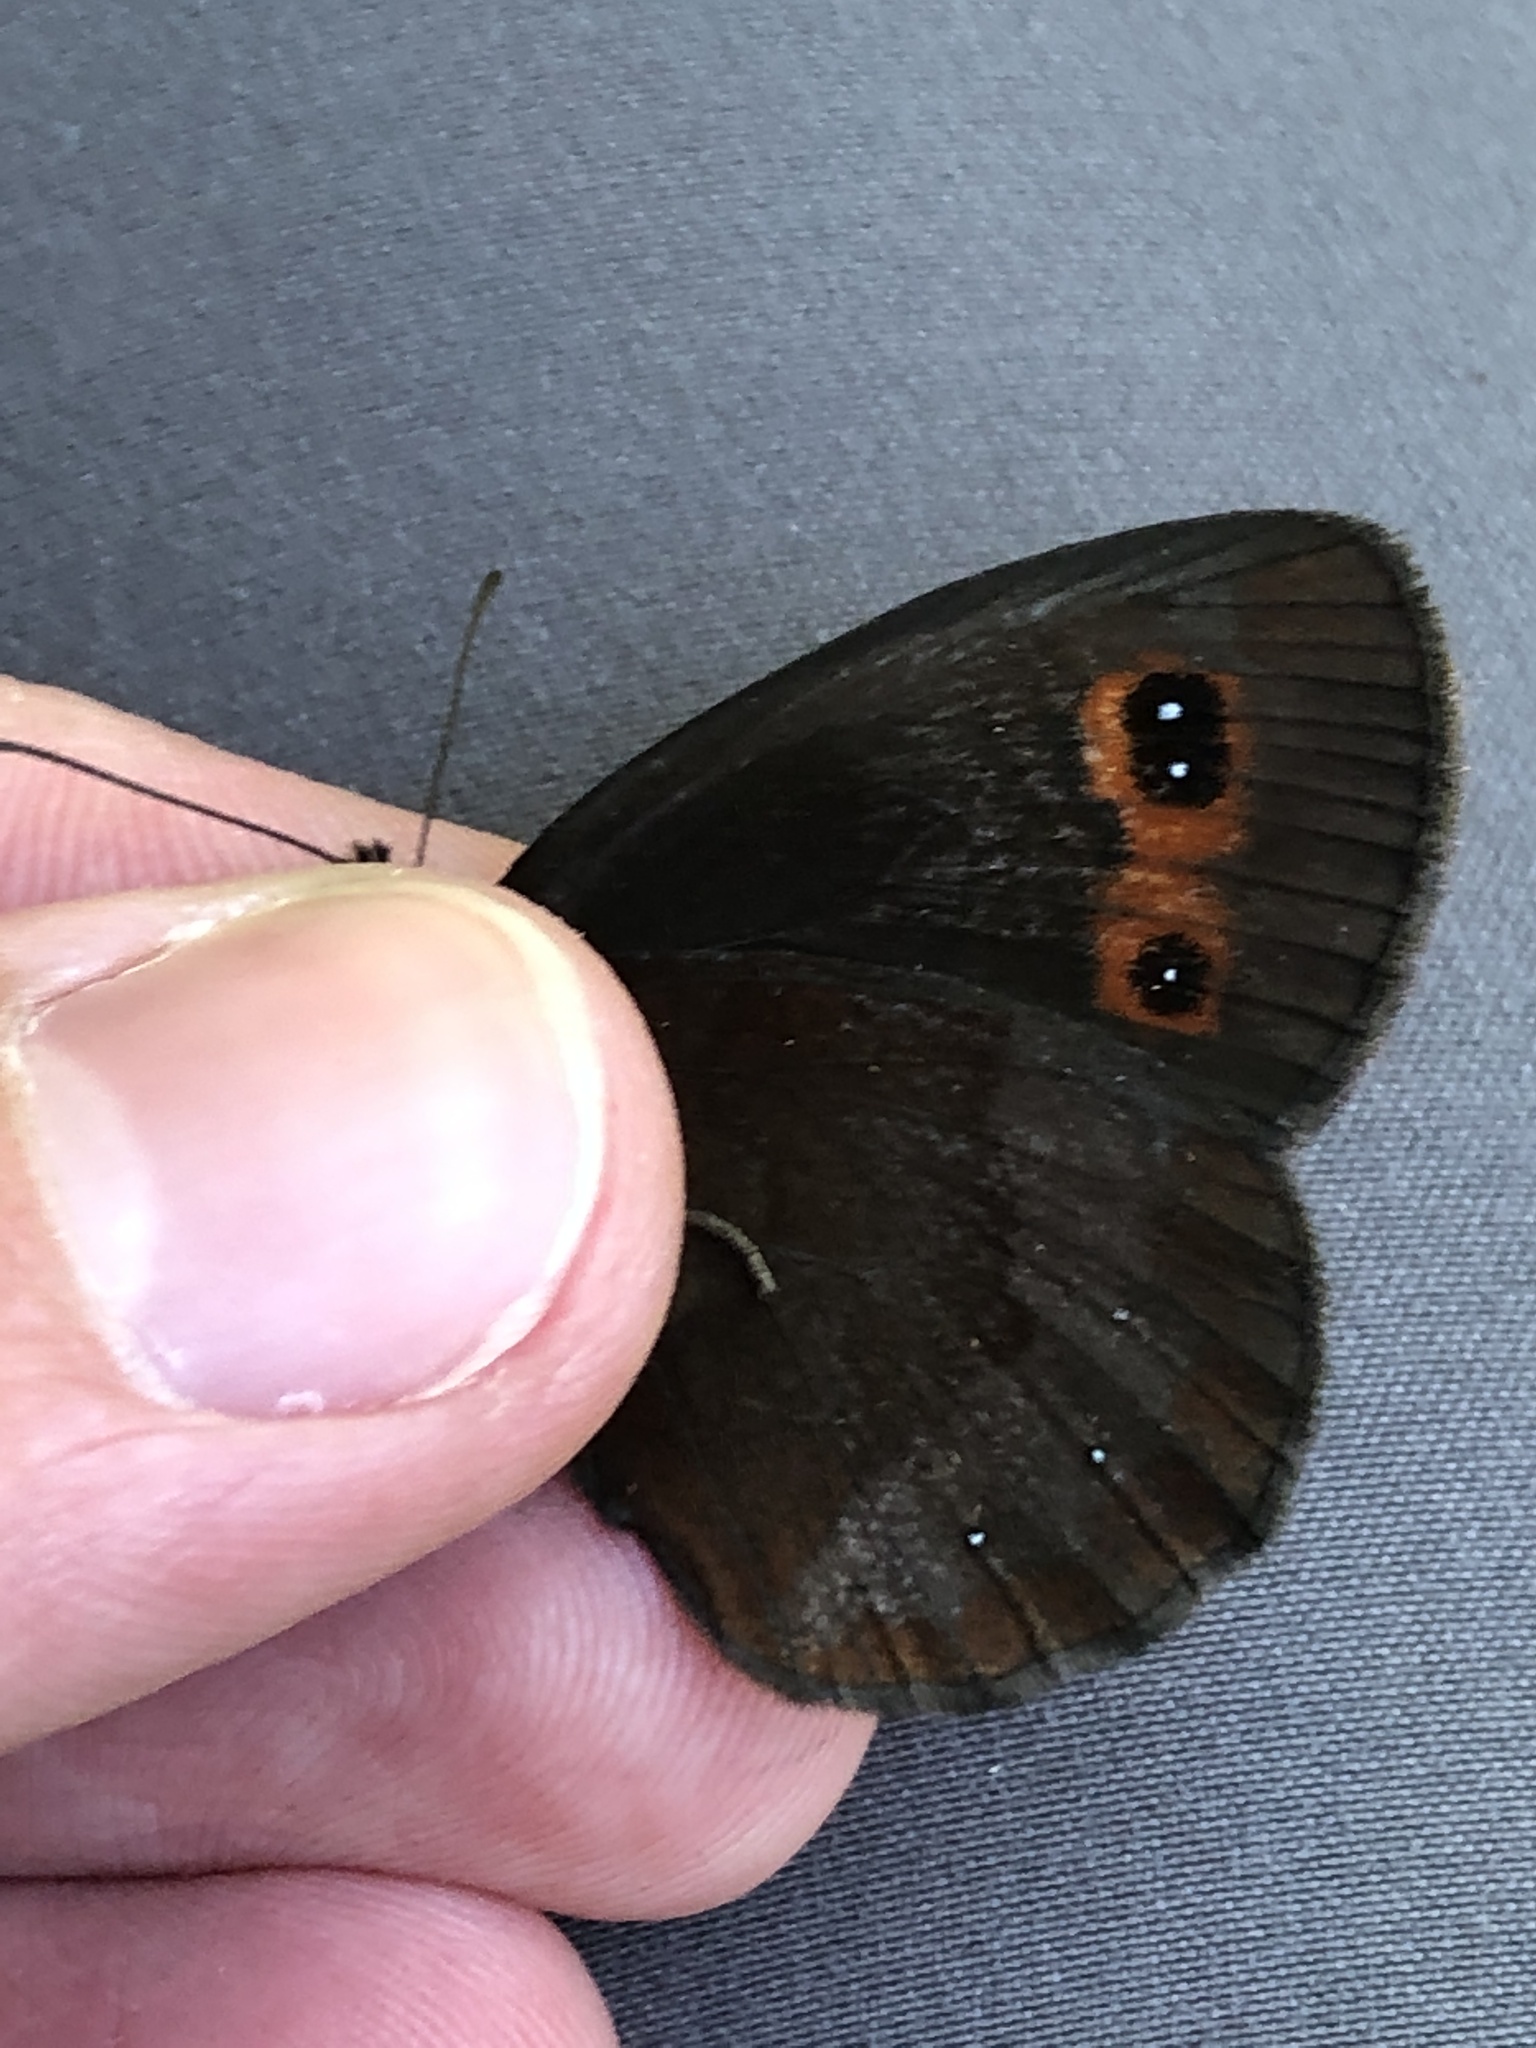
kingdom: Animalia
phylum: Arthropoda
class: Insecta
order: Lepidoptera
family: Nymphalidae
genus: Erebia
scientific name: Erebia aethiops
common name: Scotch argus
